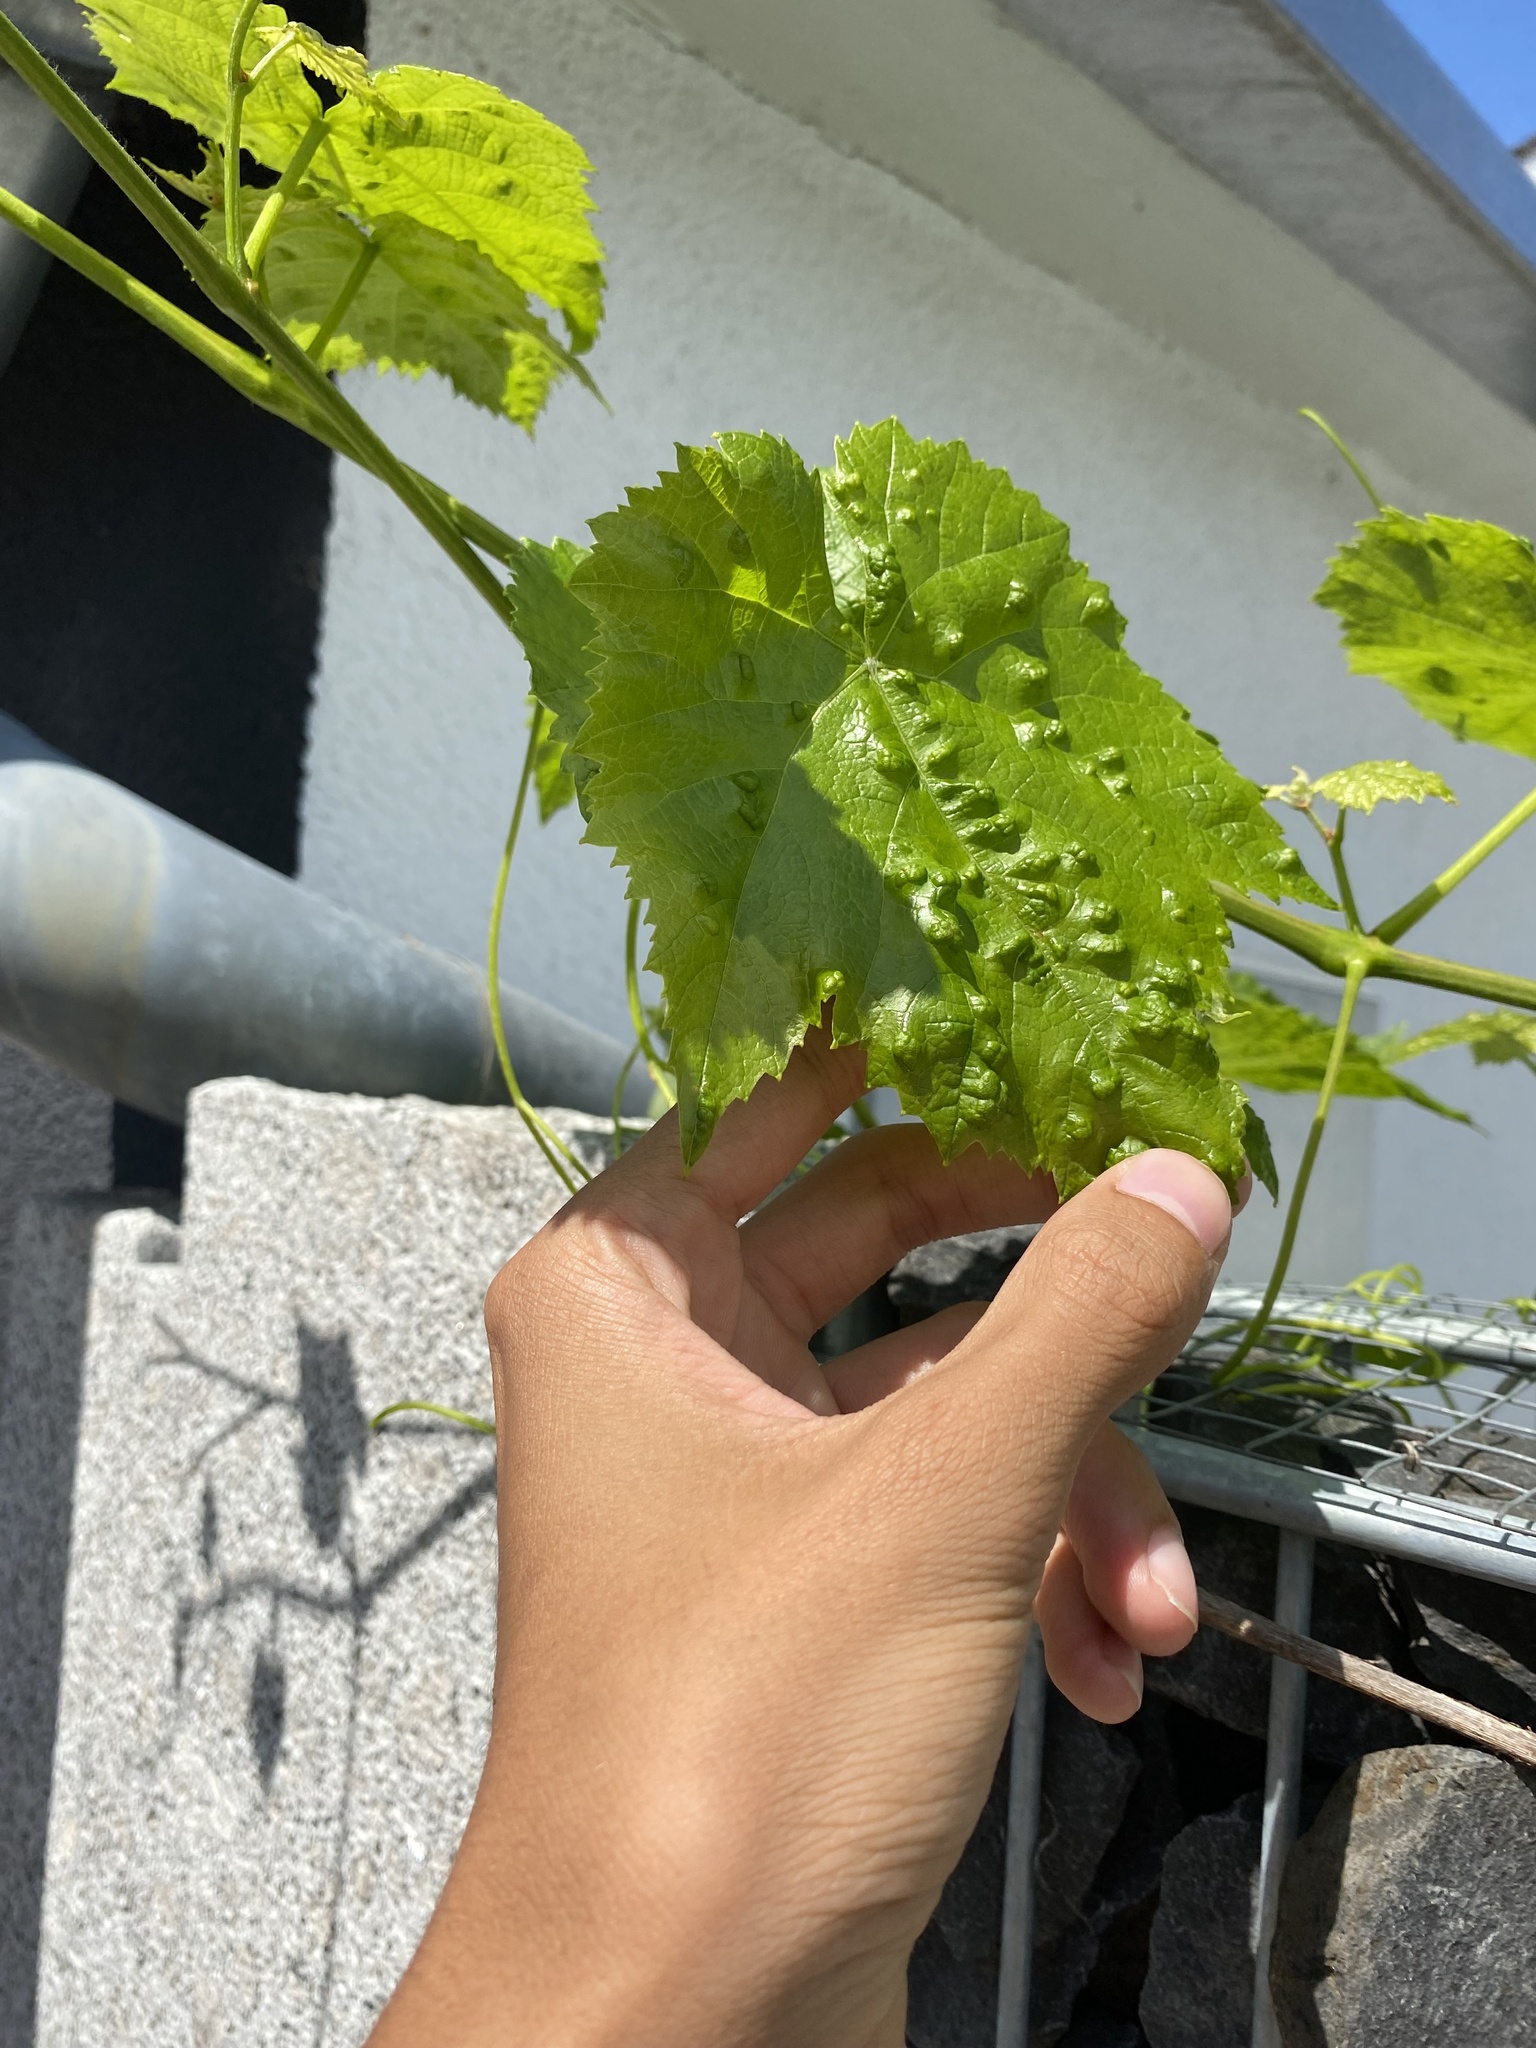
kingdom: Animalia
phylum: Arthropoda
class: Arachnida
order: Trombidiformes
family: Eriophyidae
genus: Colomerus
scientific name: Colomerus vitis
